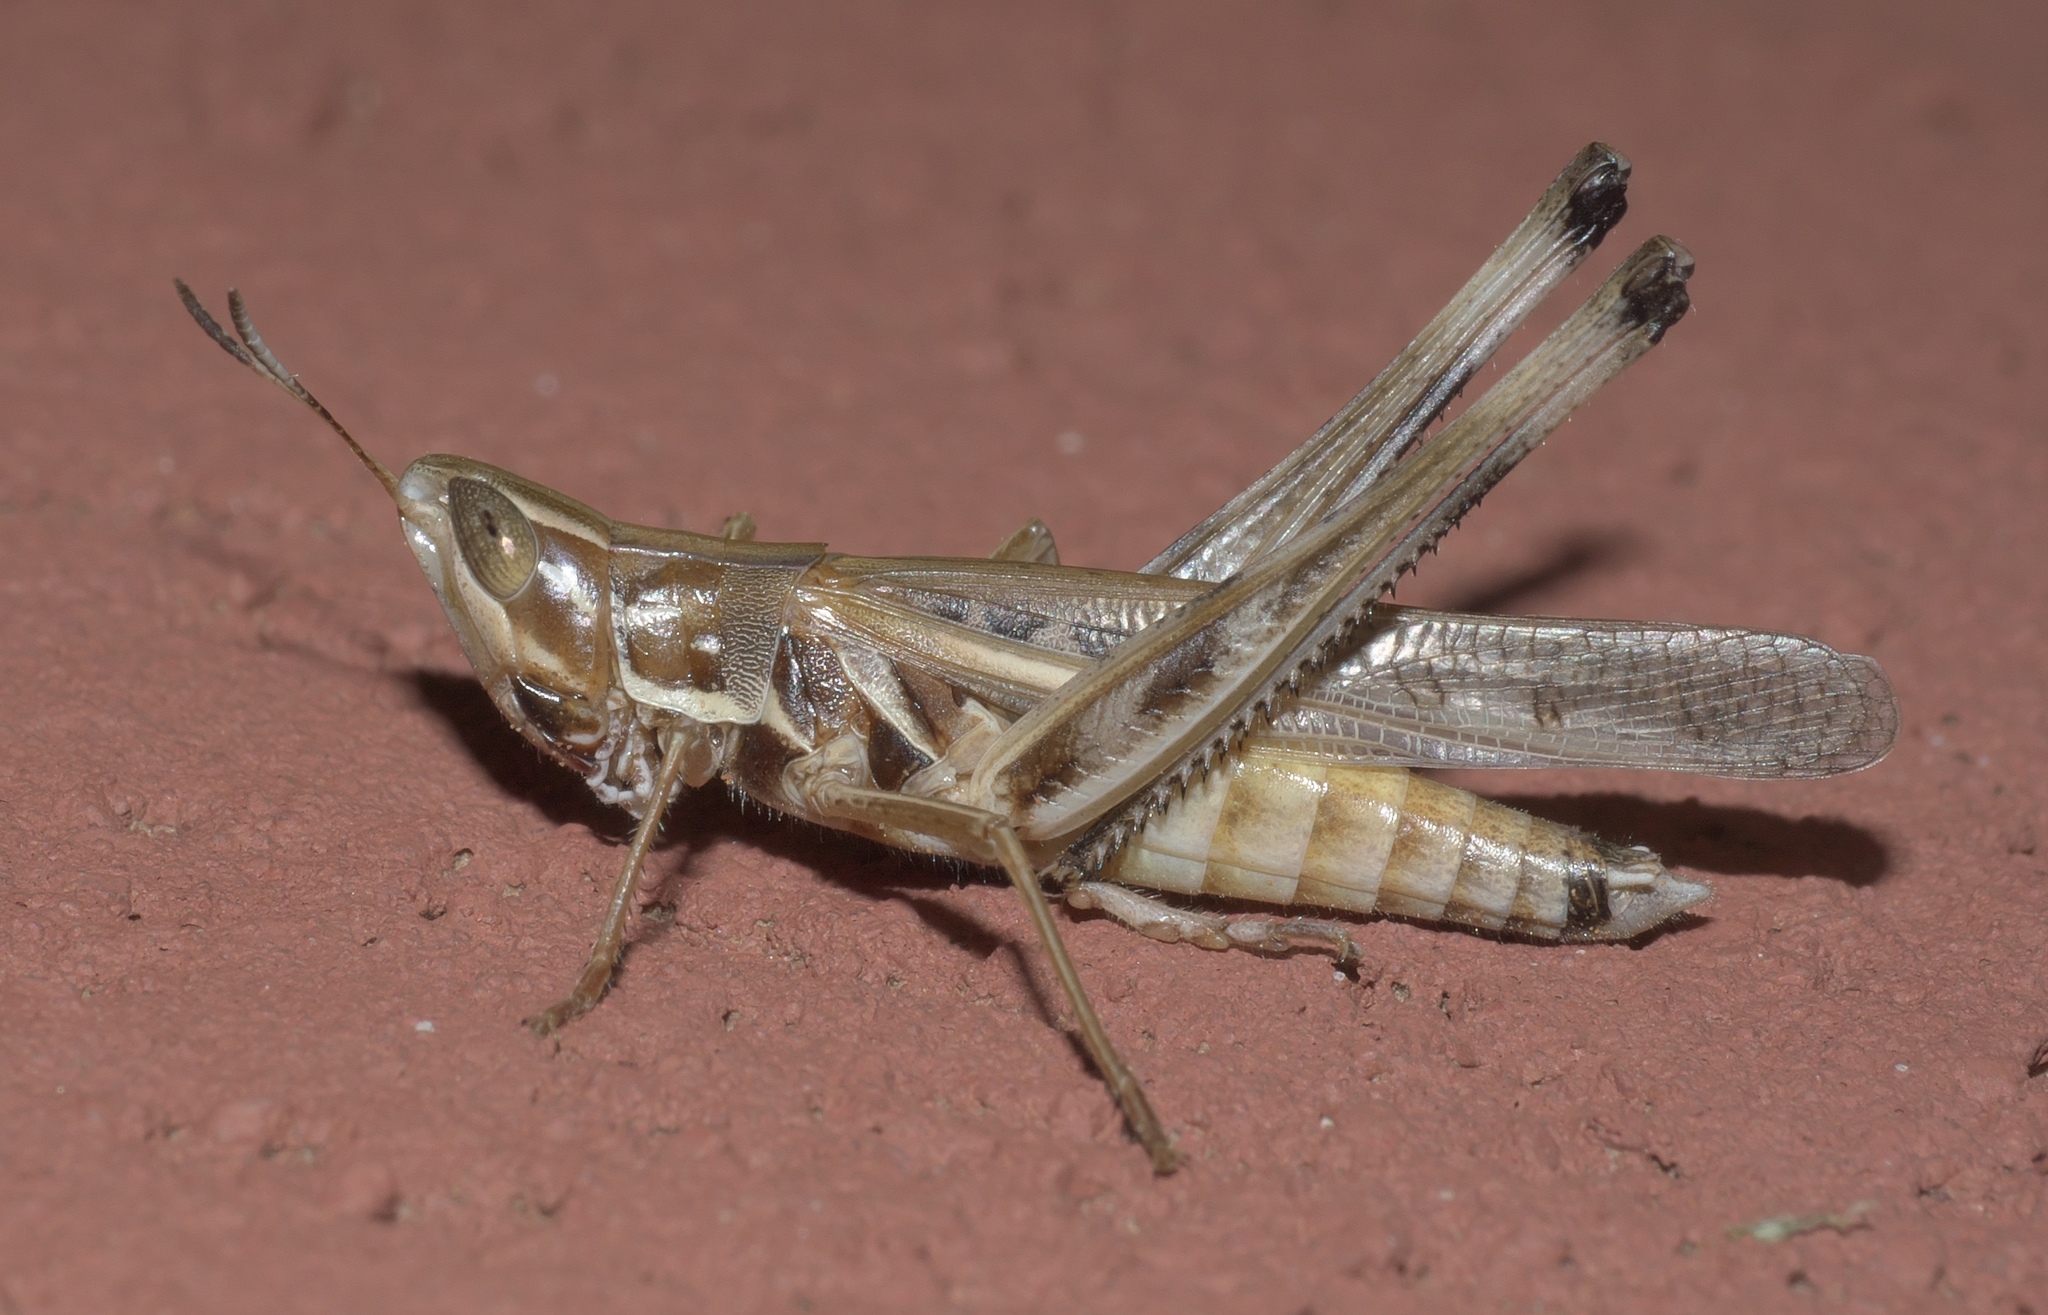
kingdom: Animalia
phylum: Arthropoda
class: Insecta
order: Orthoptera
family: Acrididae
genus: Syrbula
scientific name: Syrbula admirabilis
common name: Handsome grasshopper
